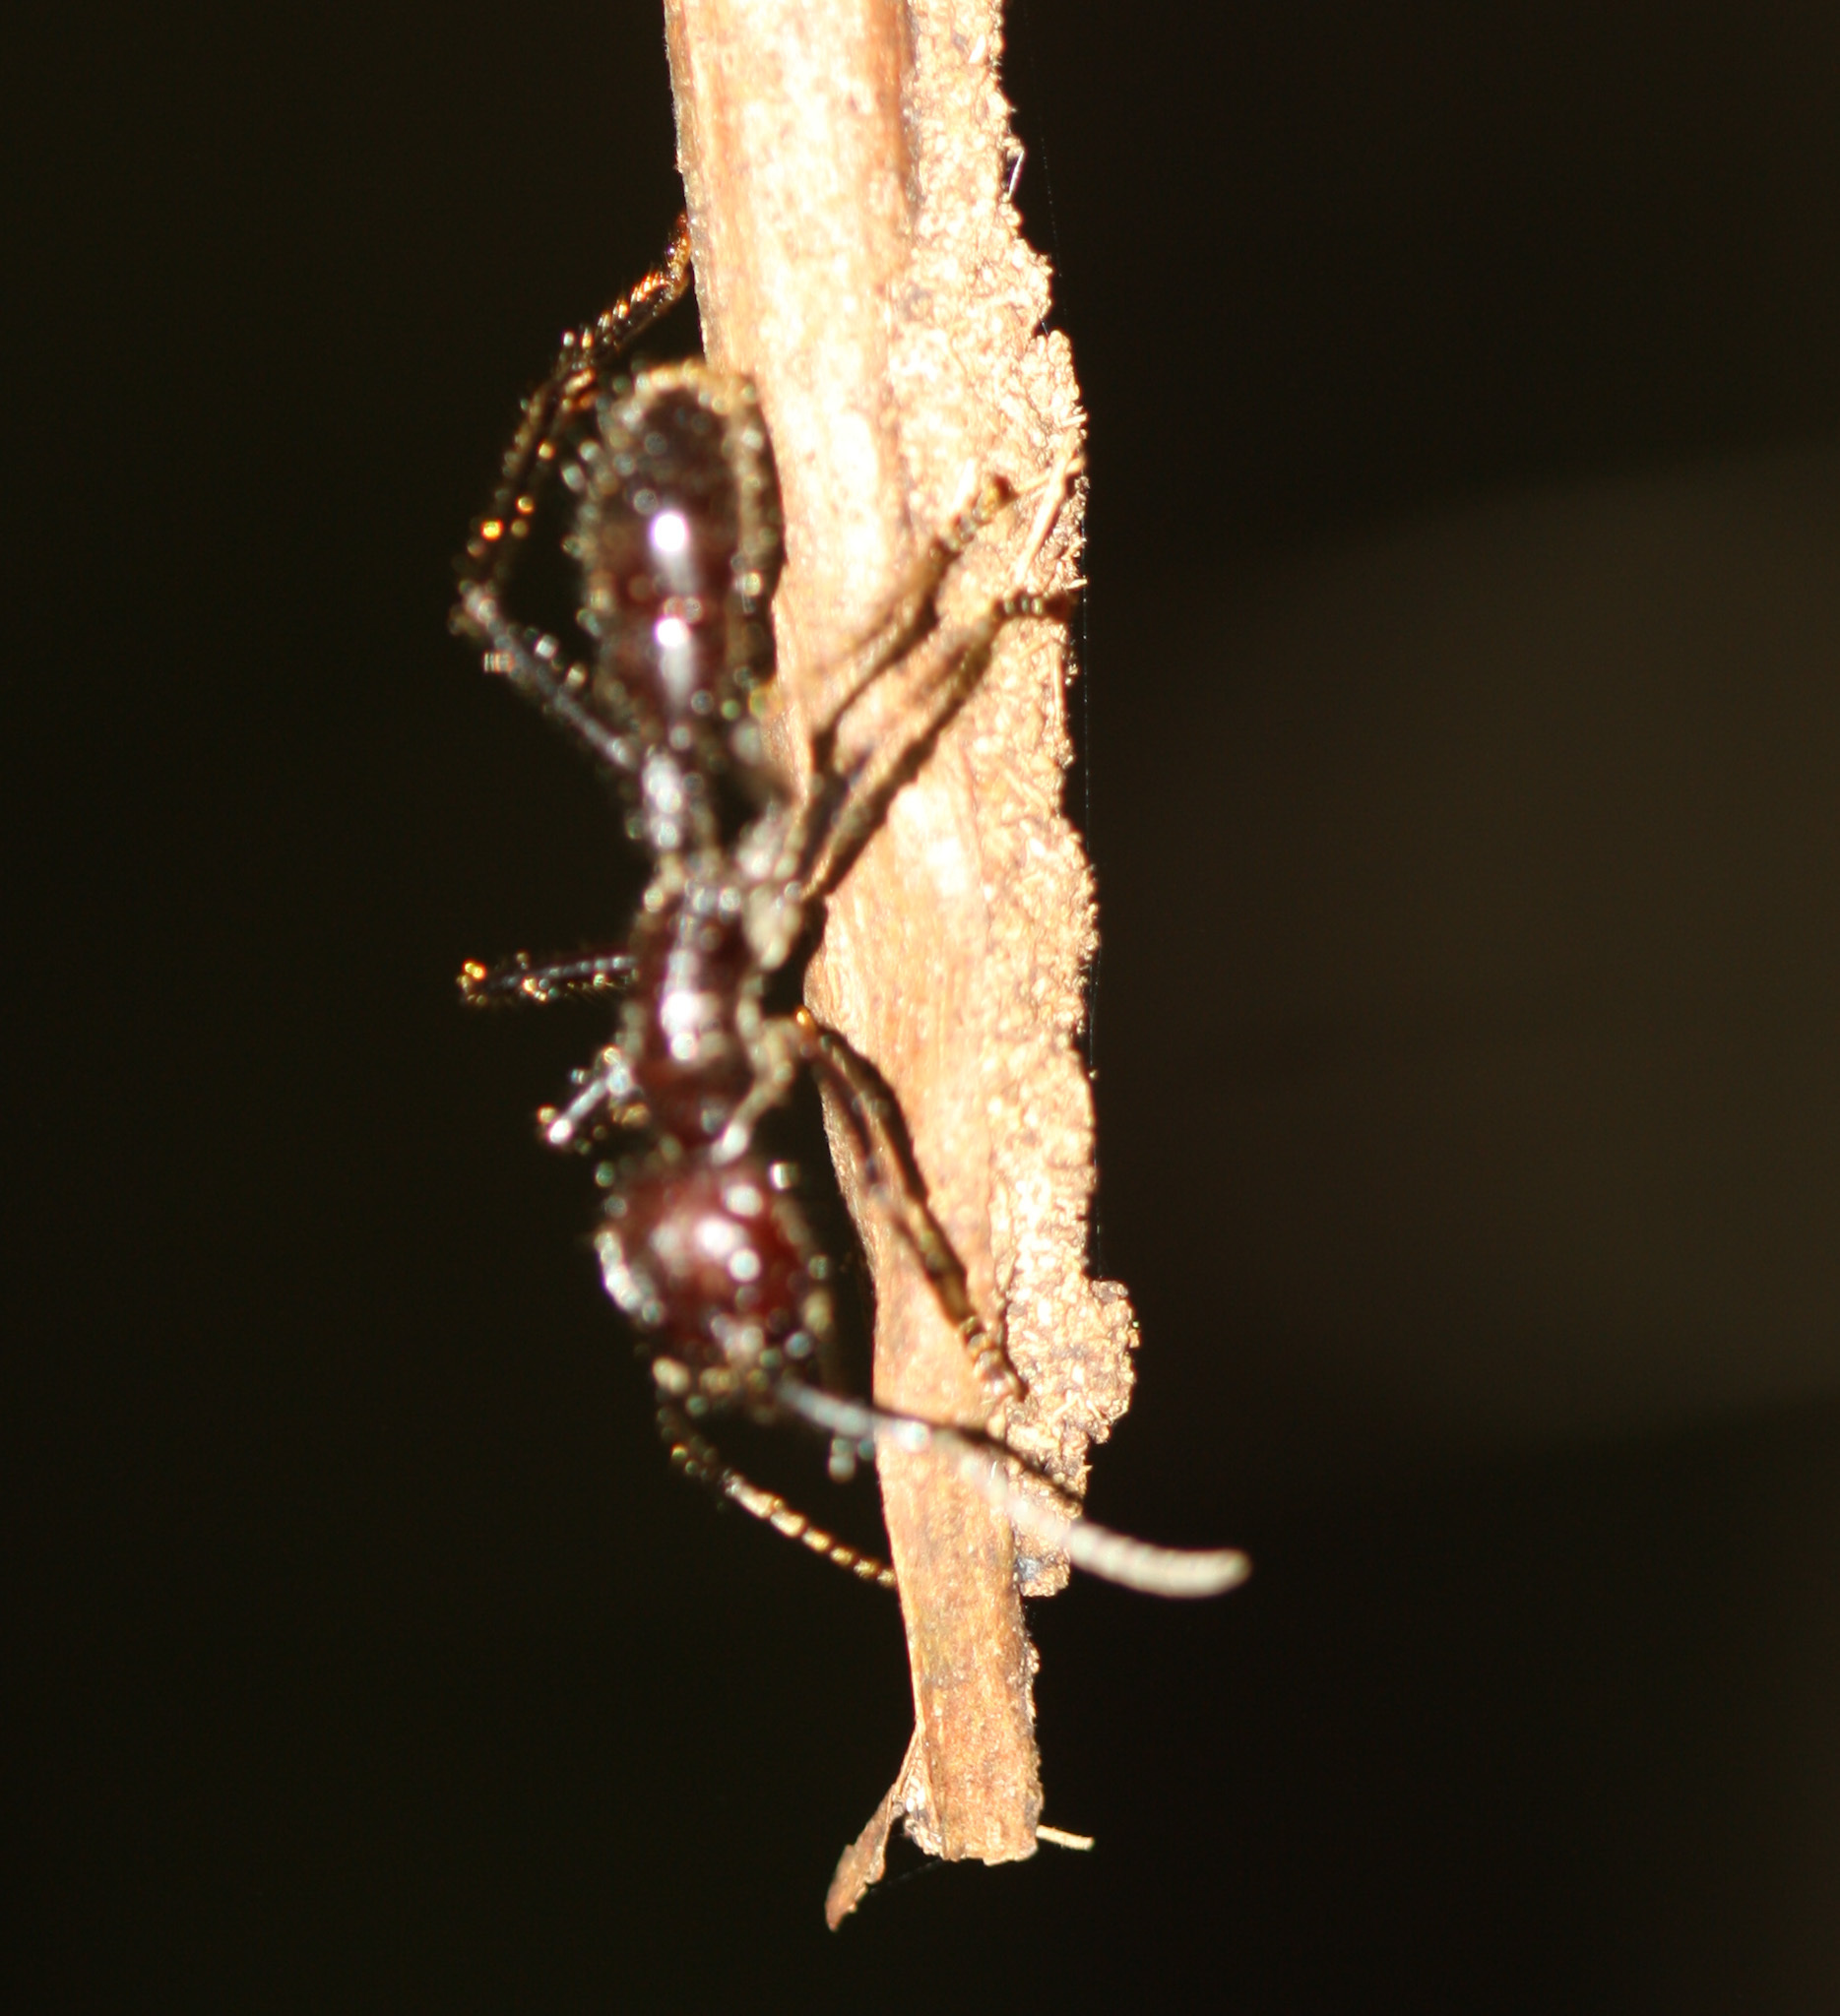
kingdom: Animalia
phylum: Arthropoda
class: Insecta
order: Hymenoptera
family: Formicidae
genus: Paraponera
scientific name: Paraponera clavata
